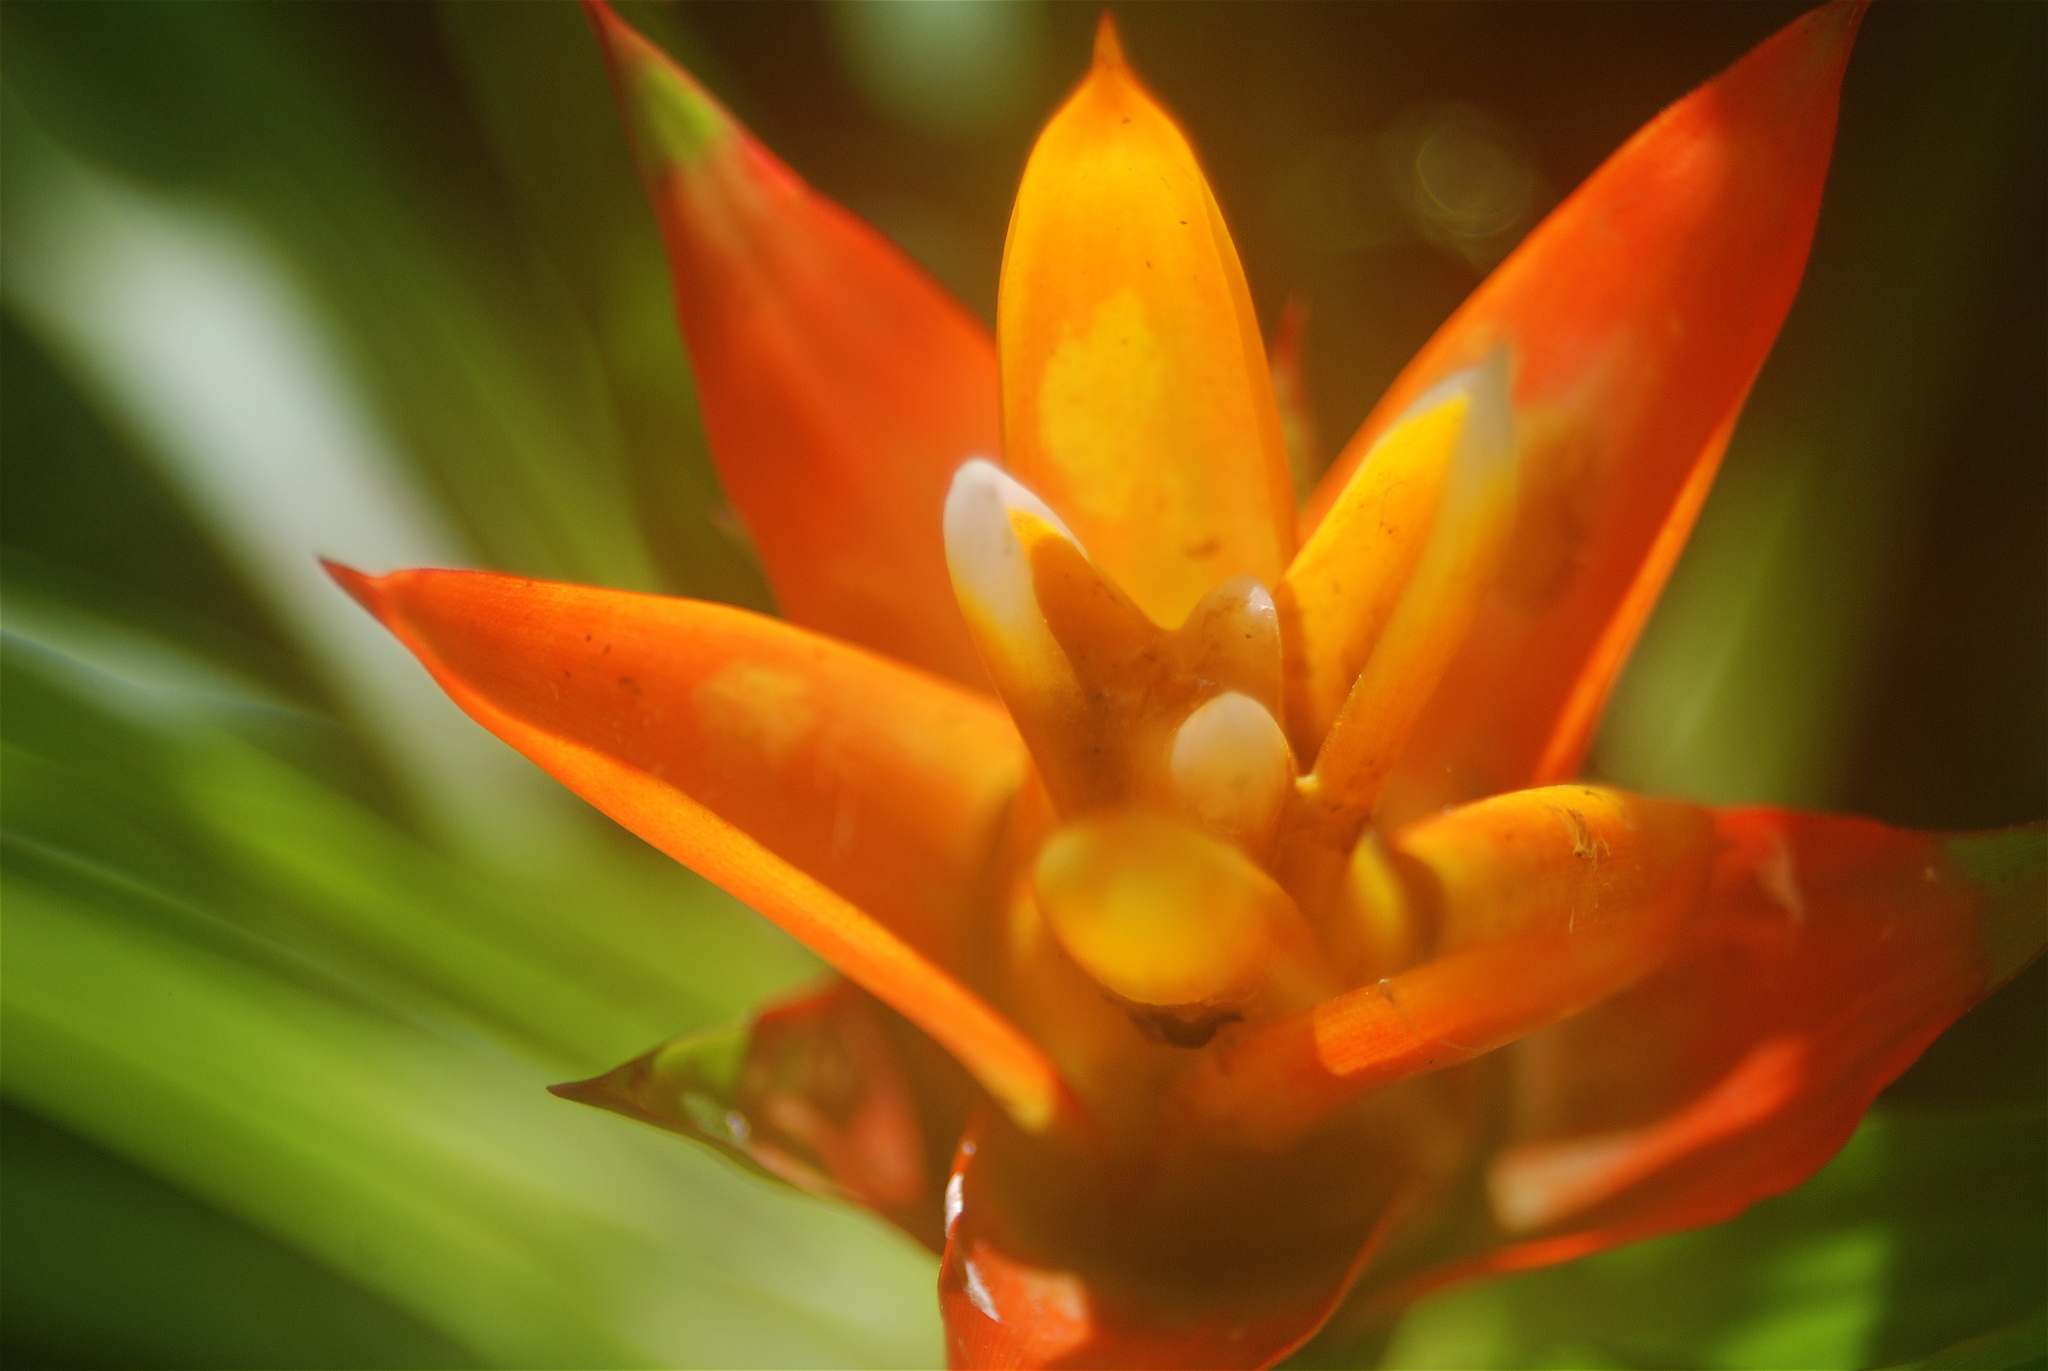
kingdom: Plantae
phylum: Tracheophyta
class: Liliopsida
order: Poales
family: Bromeliaceae
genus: Guzmania
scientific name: Guzmania lingulata
